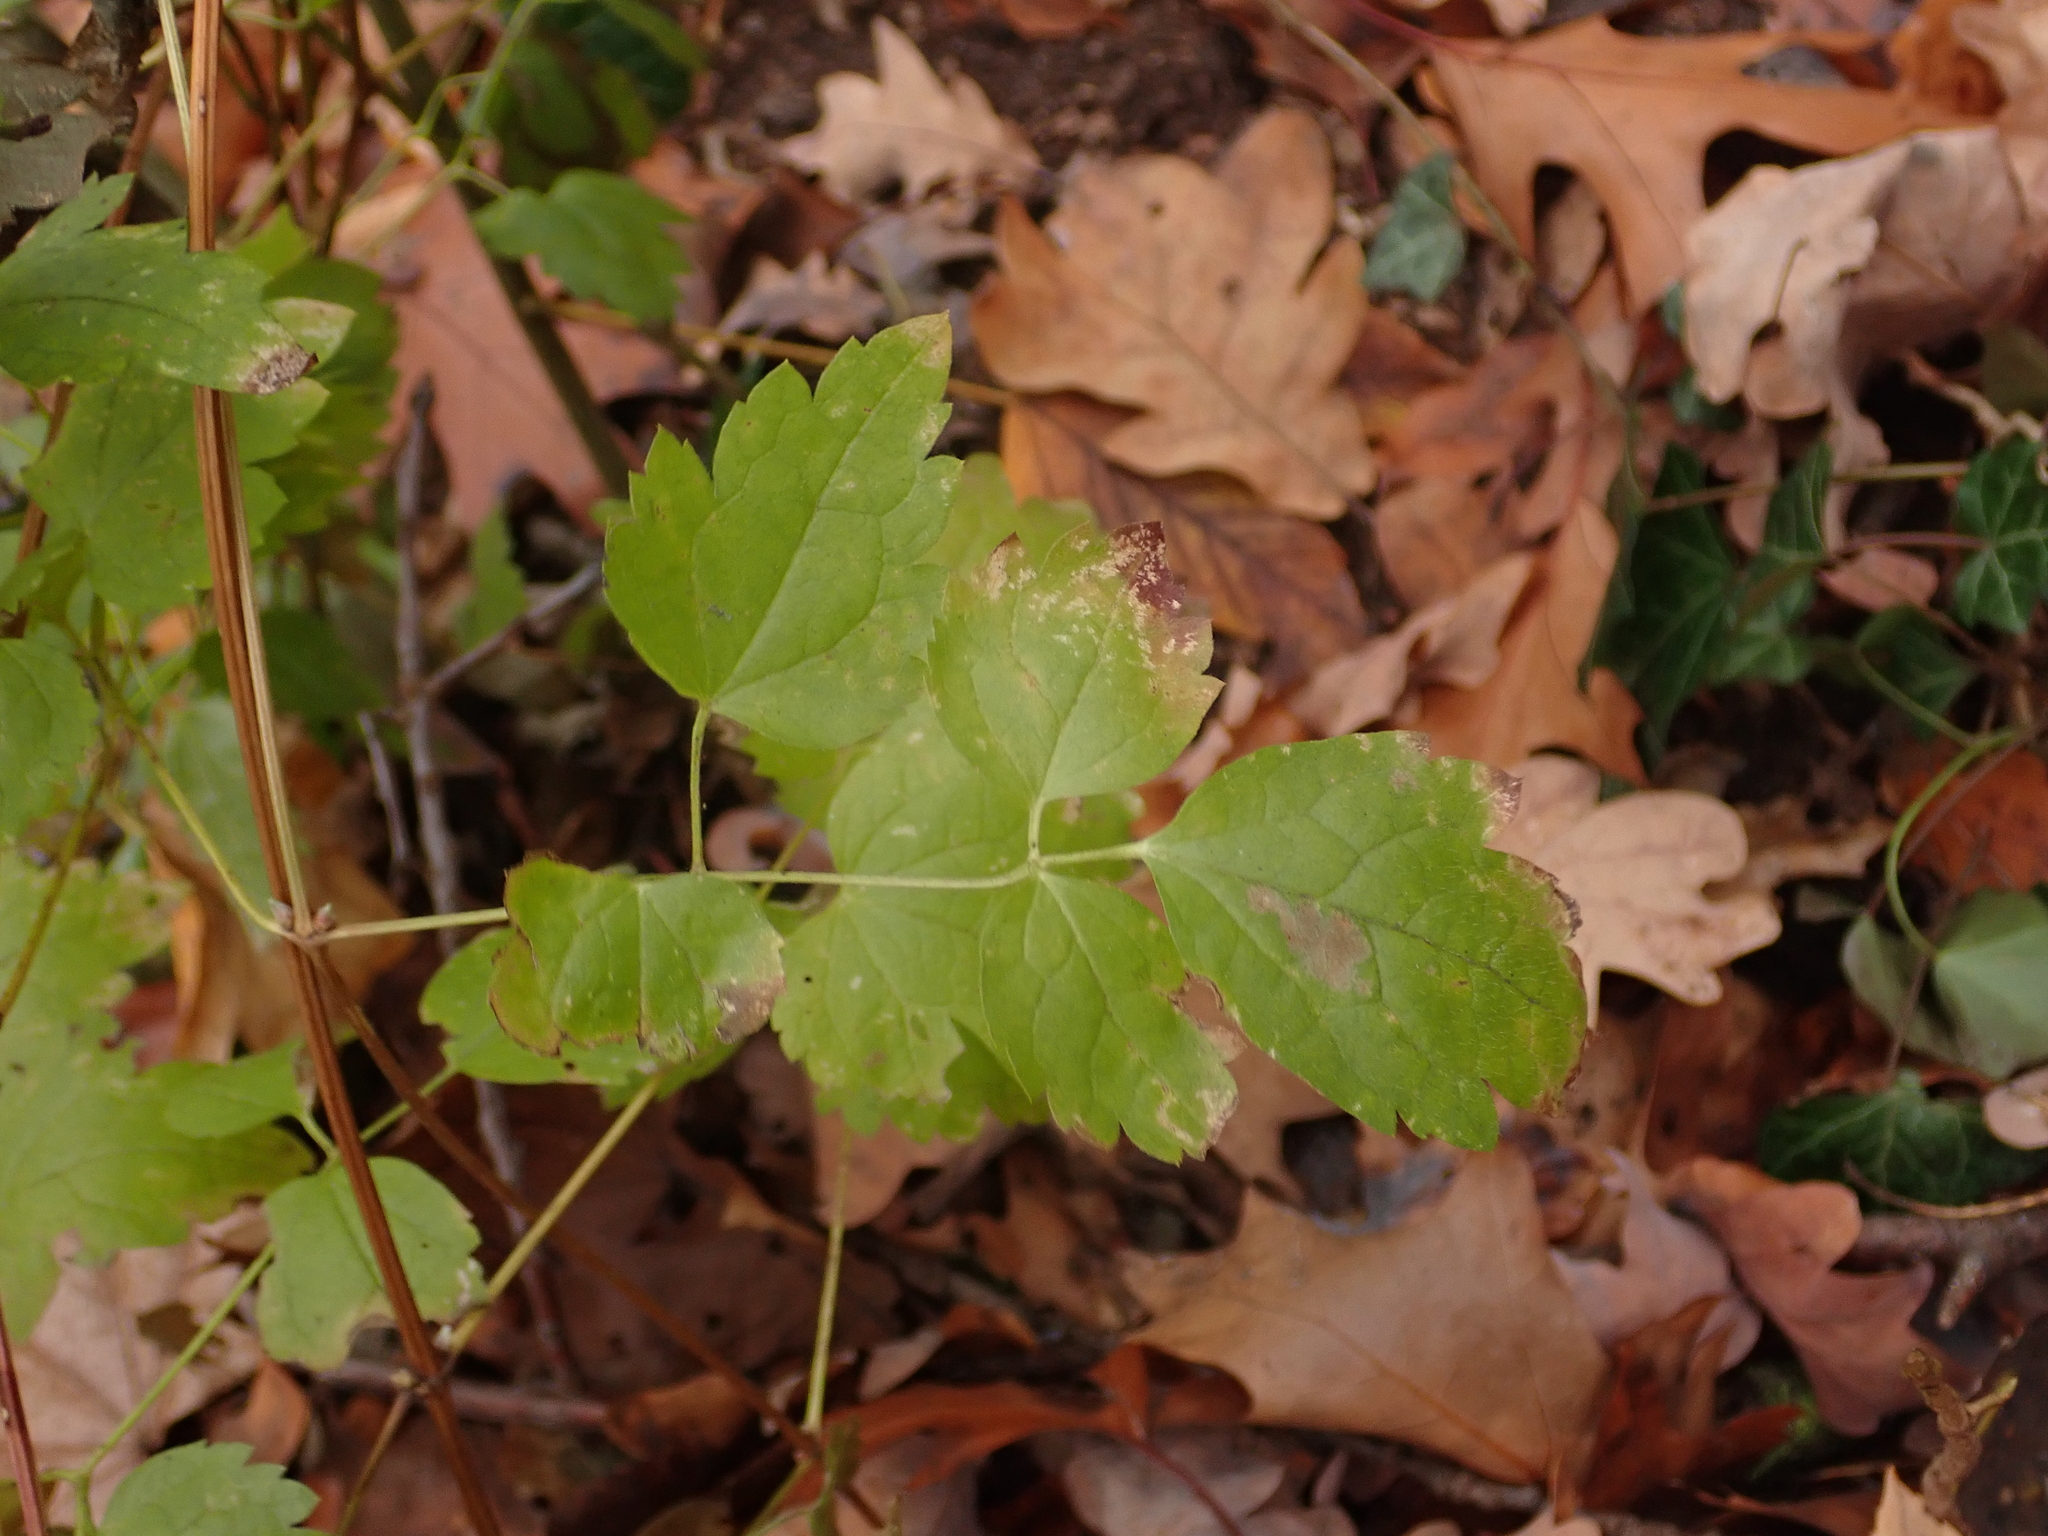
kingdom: Plantae
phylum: Tracheophyta
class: Magnoliopsida
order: Ranunculales
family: Ranunculaceae
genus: Clematis
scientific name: Clematis vitalba
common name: Evergreen clematis
